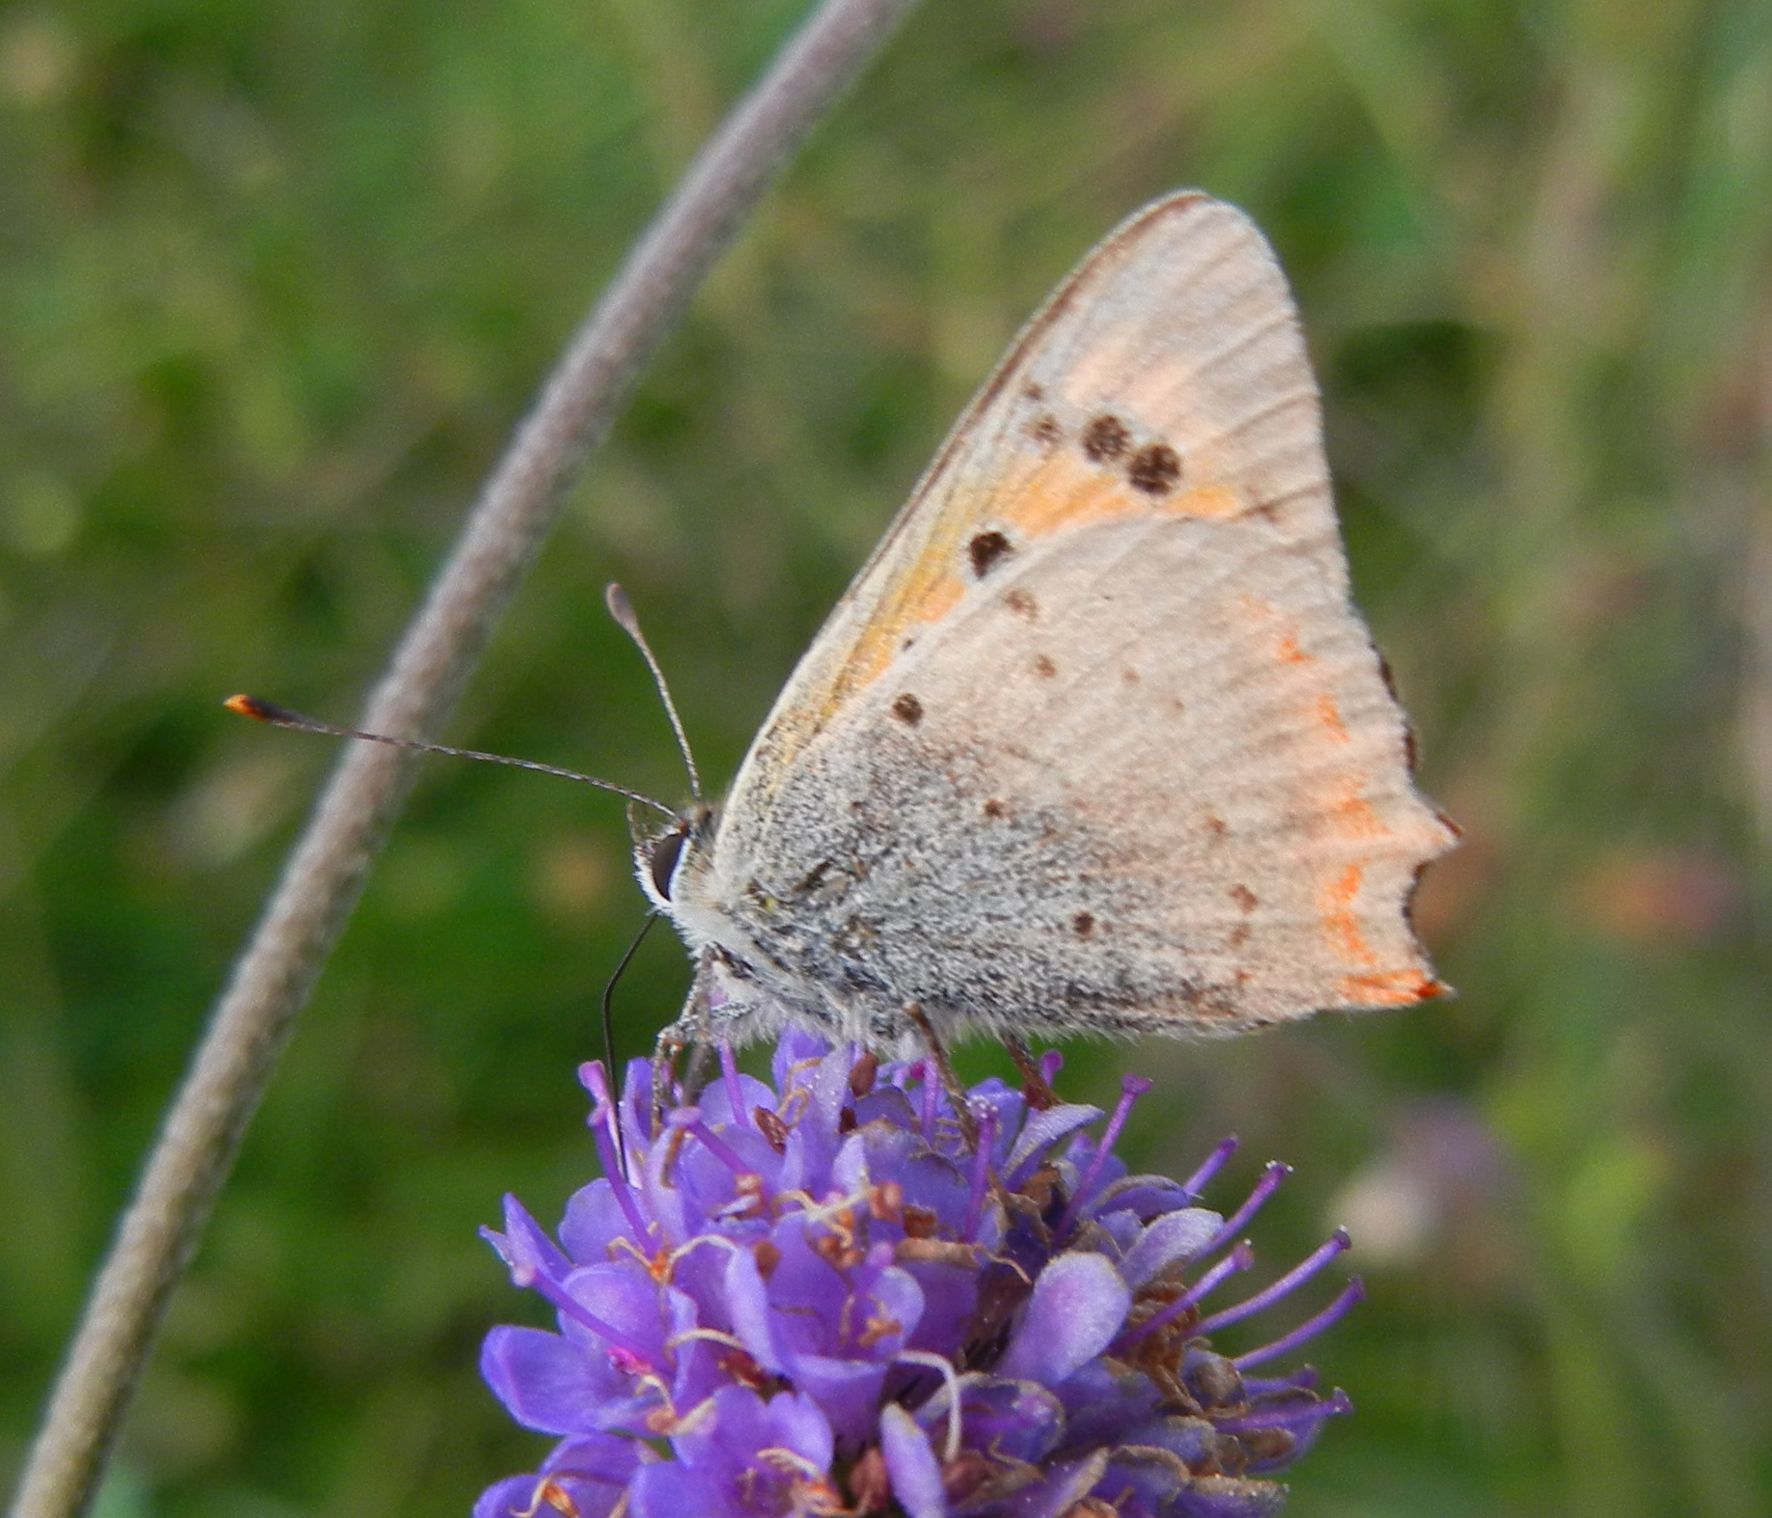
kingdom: Animalia
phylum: Arthropoda
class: Insecta
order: Lepidoptera
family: Lycaenidae
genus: Lycaena
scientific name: Lycaena phlaeas
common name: Small copper
